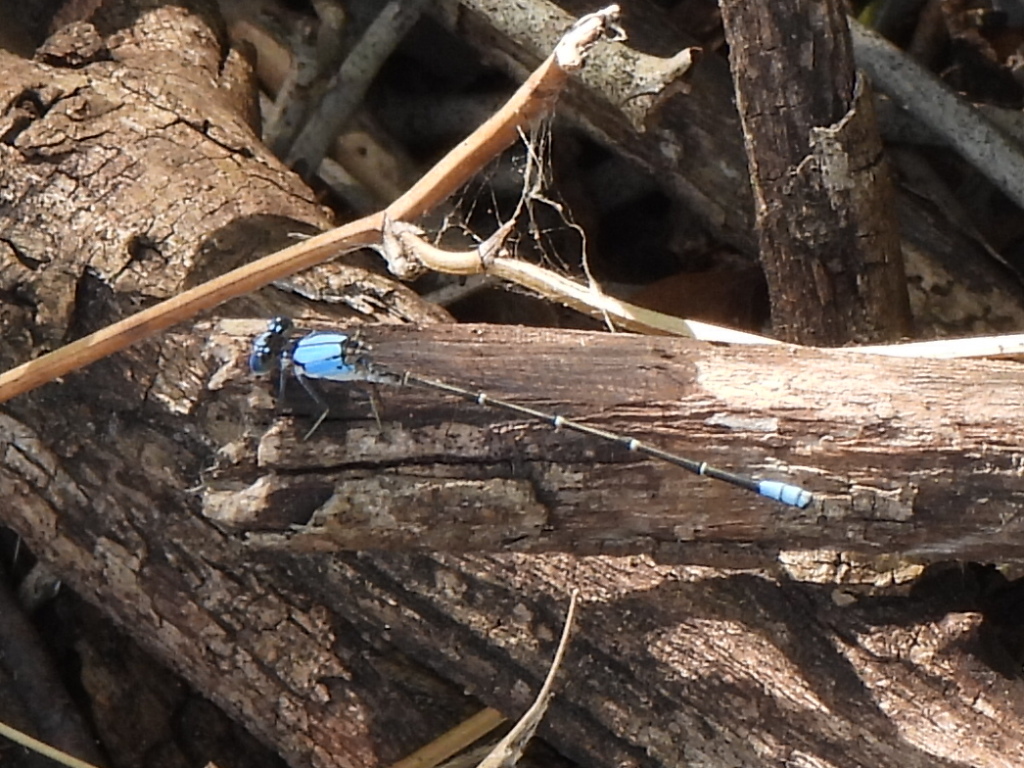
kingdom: Animalia
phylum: Arthropoda
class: Insecta
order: Odonata
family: Coenagrionidae
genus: Argia
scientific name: Argia apicalis
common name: Blue-fronted dancer
